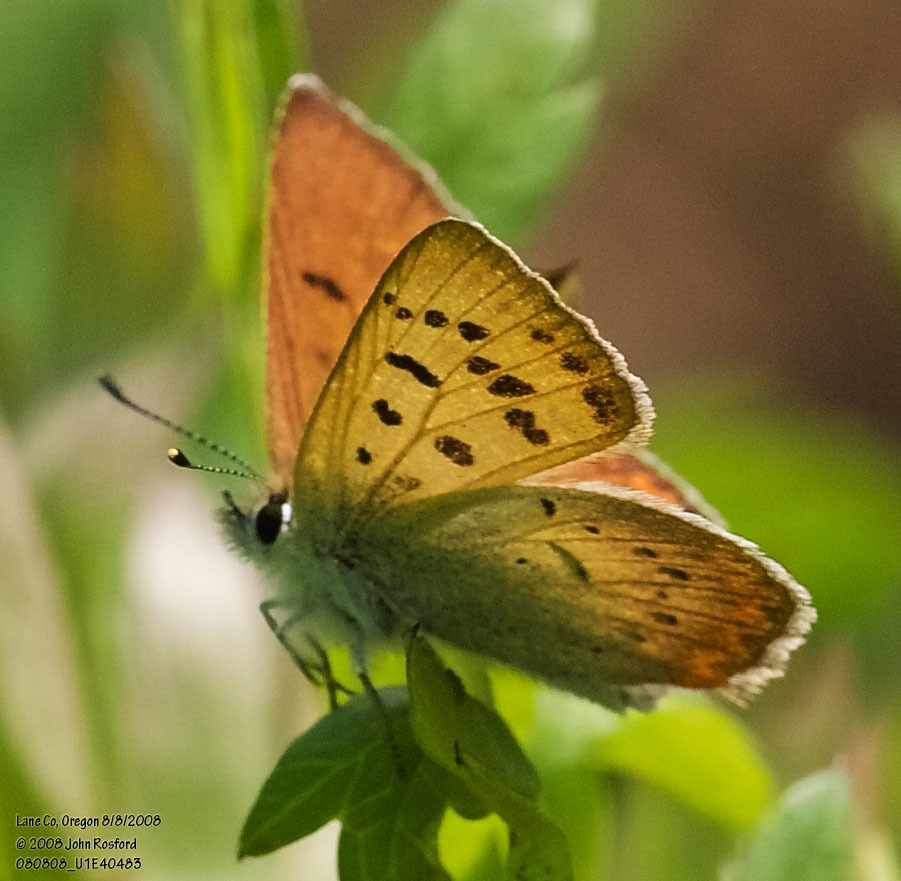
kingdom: Animalia
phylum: Arthropoda
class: Insecta
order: Lepidoptera
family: Lycaenidae
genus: Tharsalea
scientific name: Tharsalea nivalis
